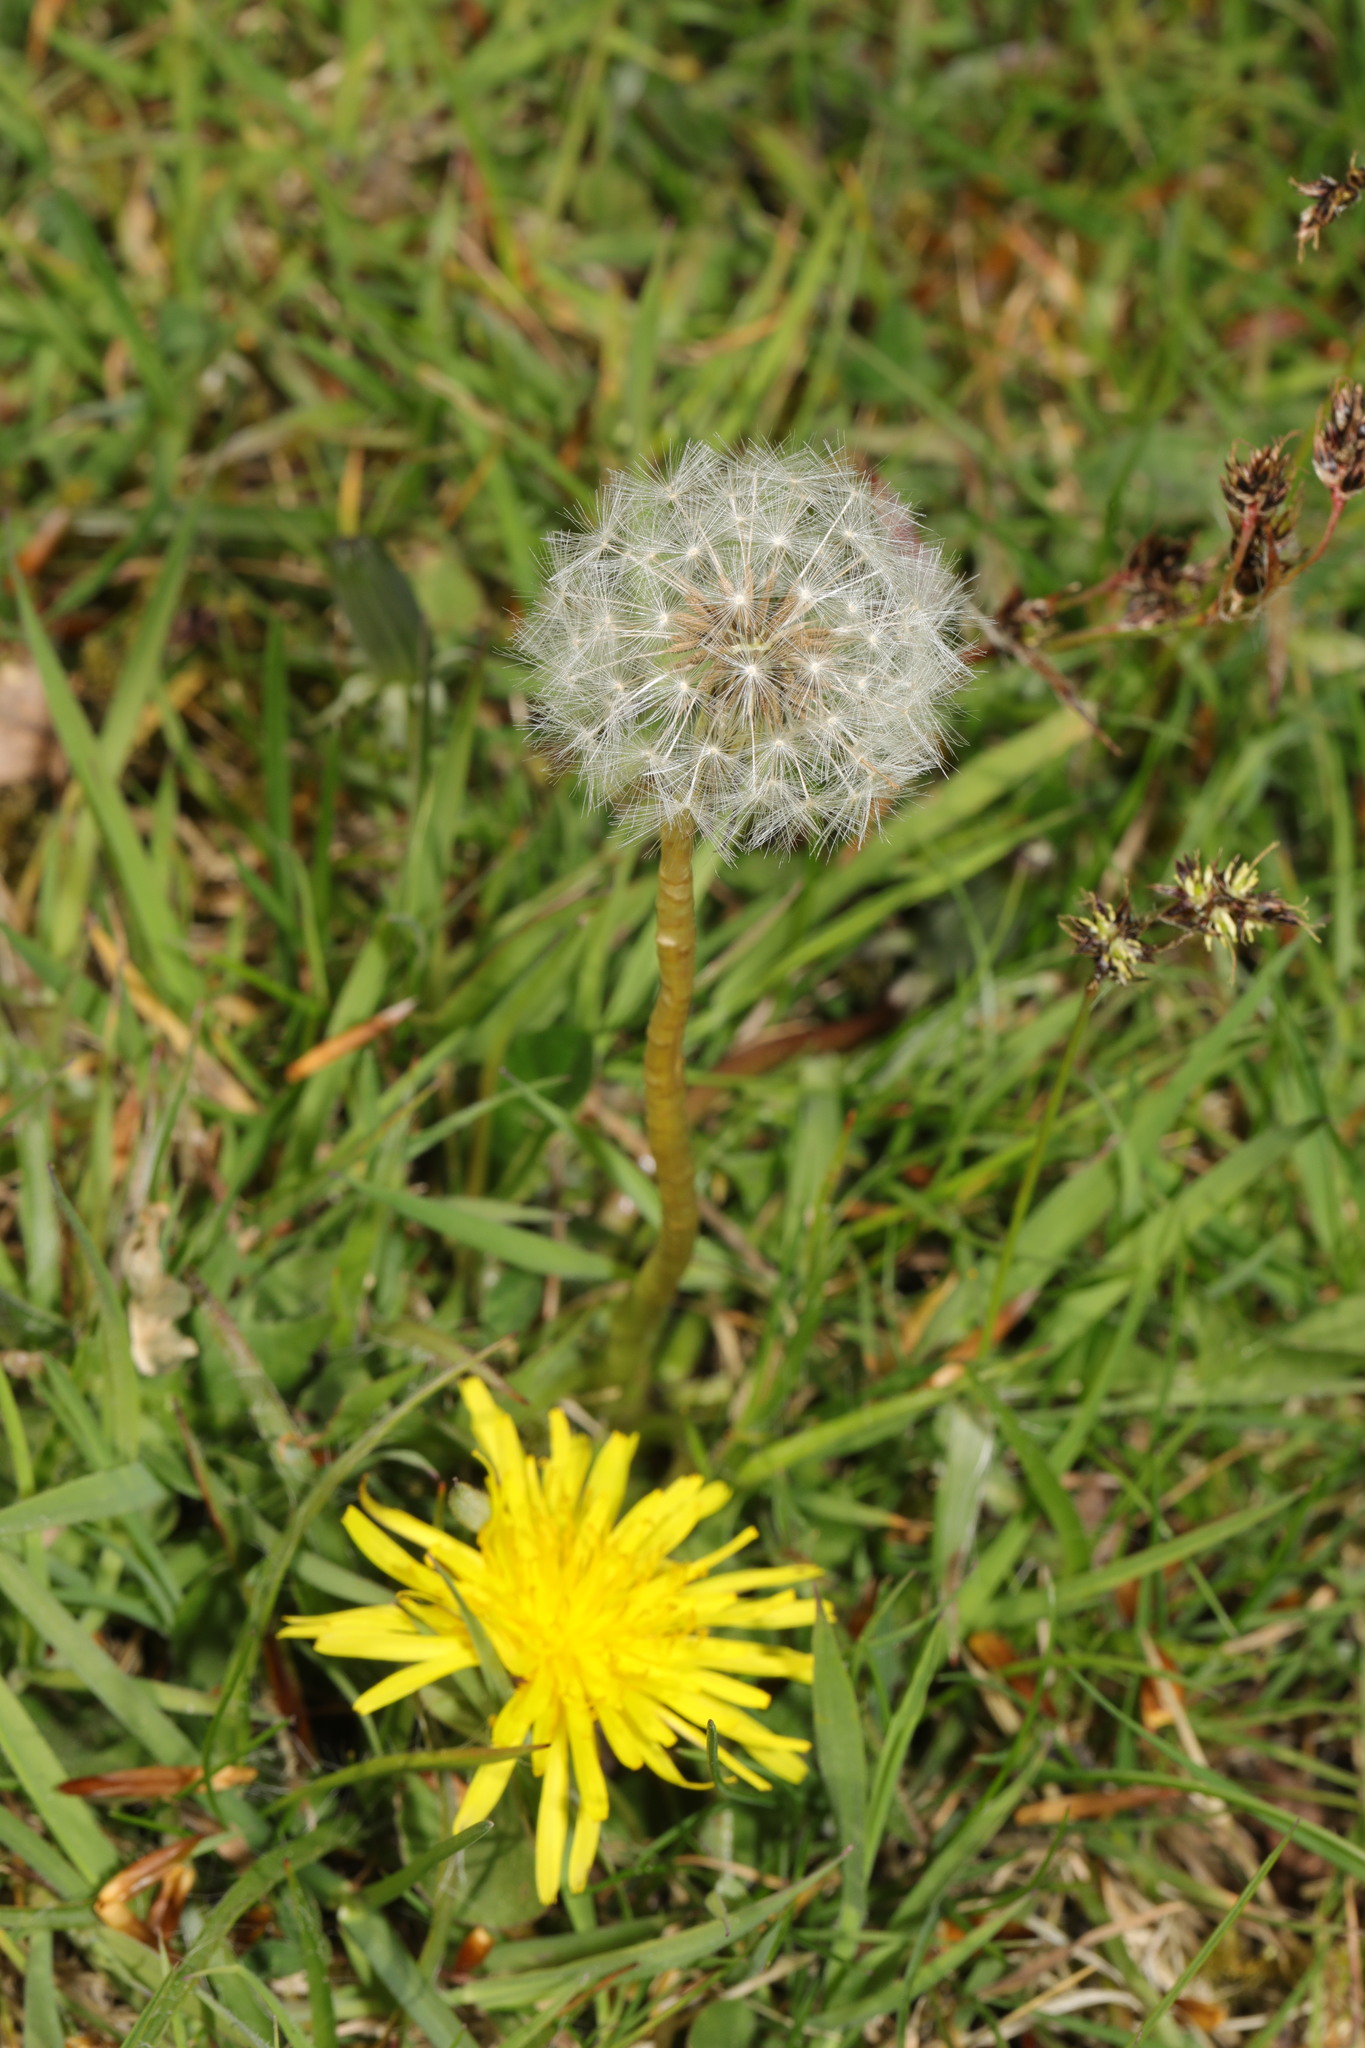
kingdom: Plantae
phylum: Tracheophyta
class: Magnoliopsida
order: Asterales
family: Asteraceae
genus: Taraxacum
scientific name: Taraxacum officinale
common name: Common dandelion
